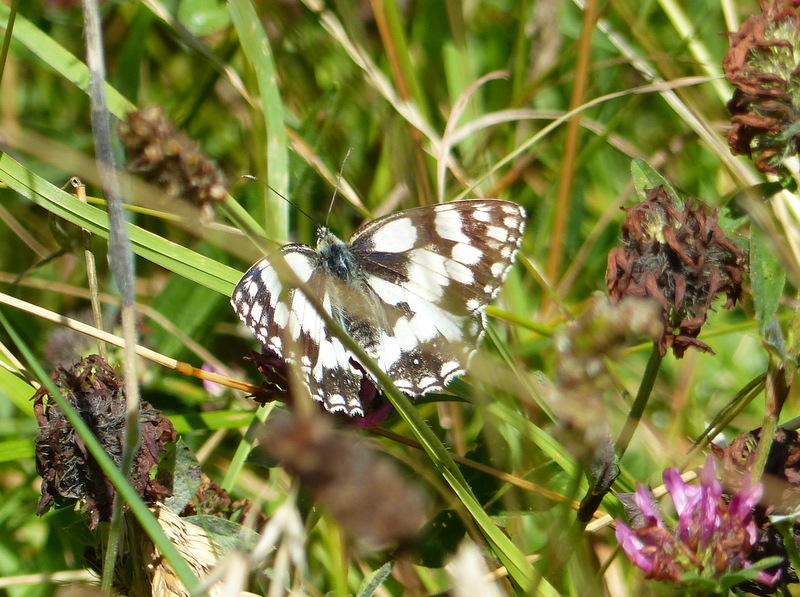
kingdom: Animalia
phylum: Arthropoda
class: Insecta
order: Lepidoptera
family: Nymphalidae
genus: Melanargia
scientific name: Melanargia galathea
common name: Marbled white
